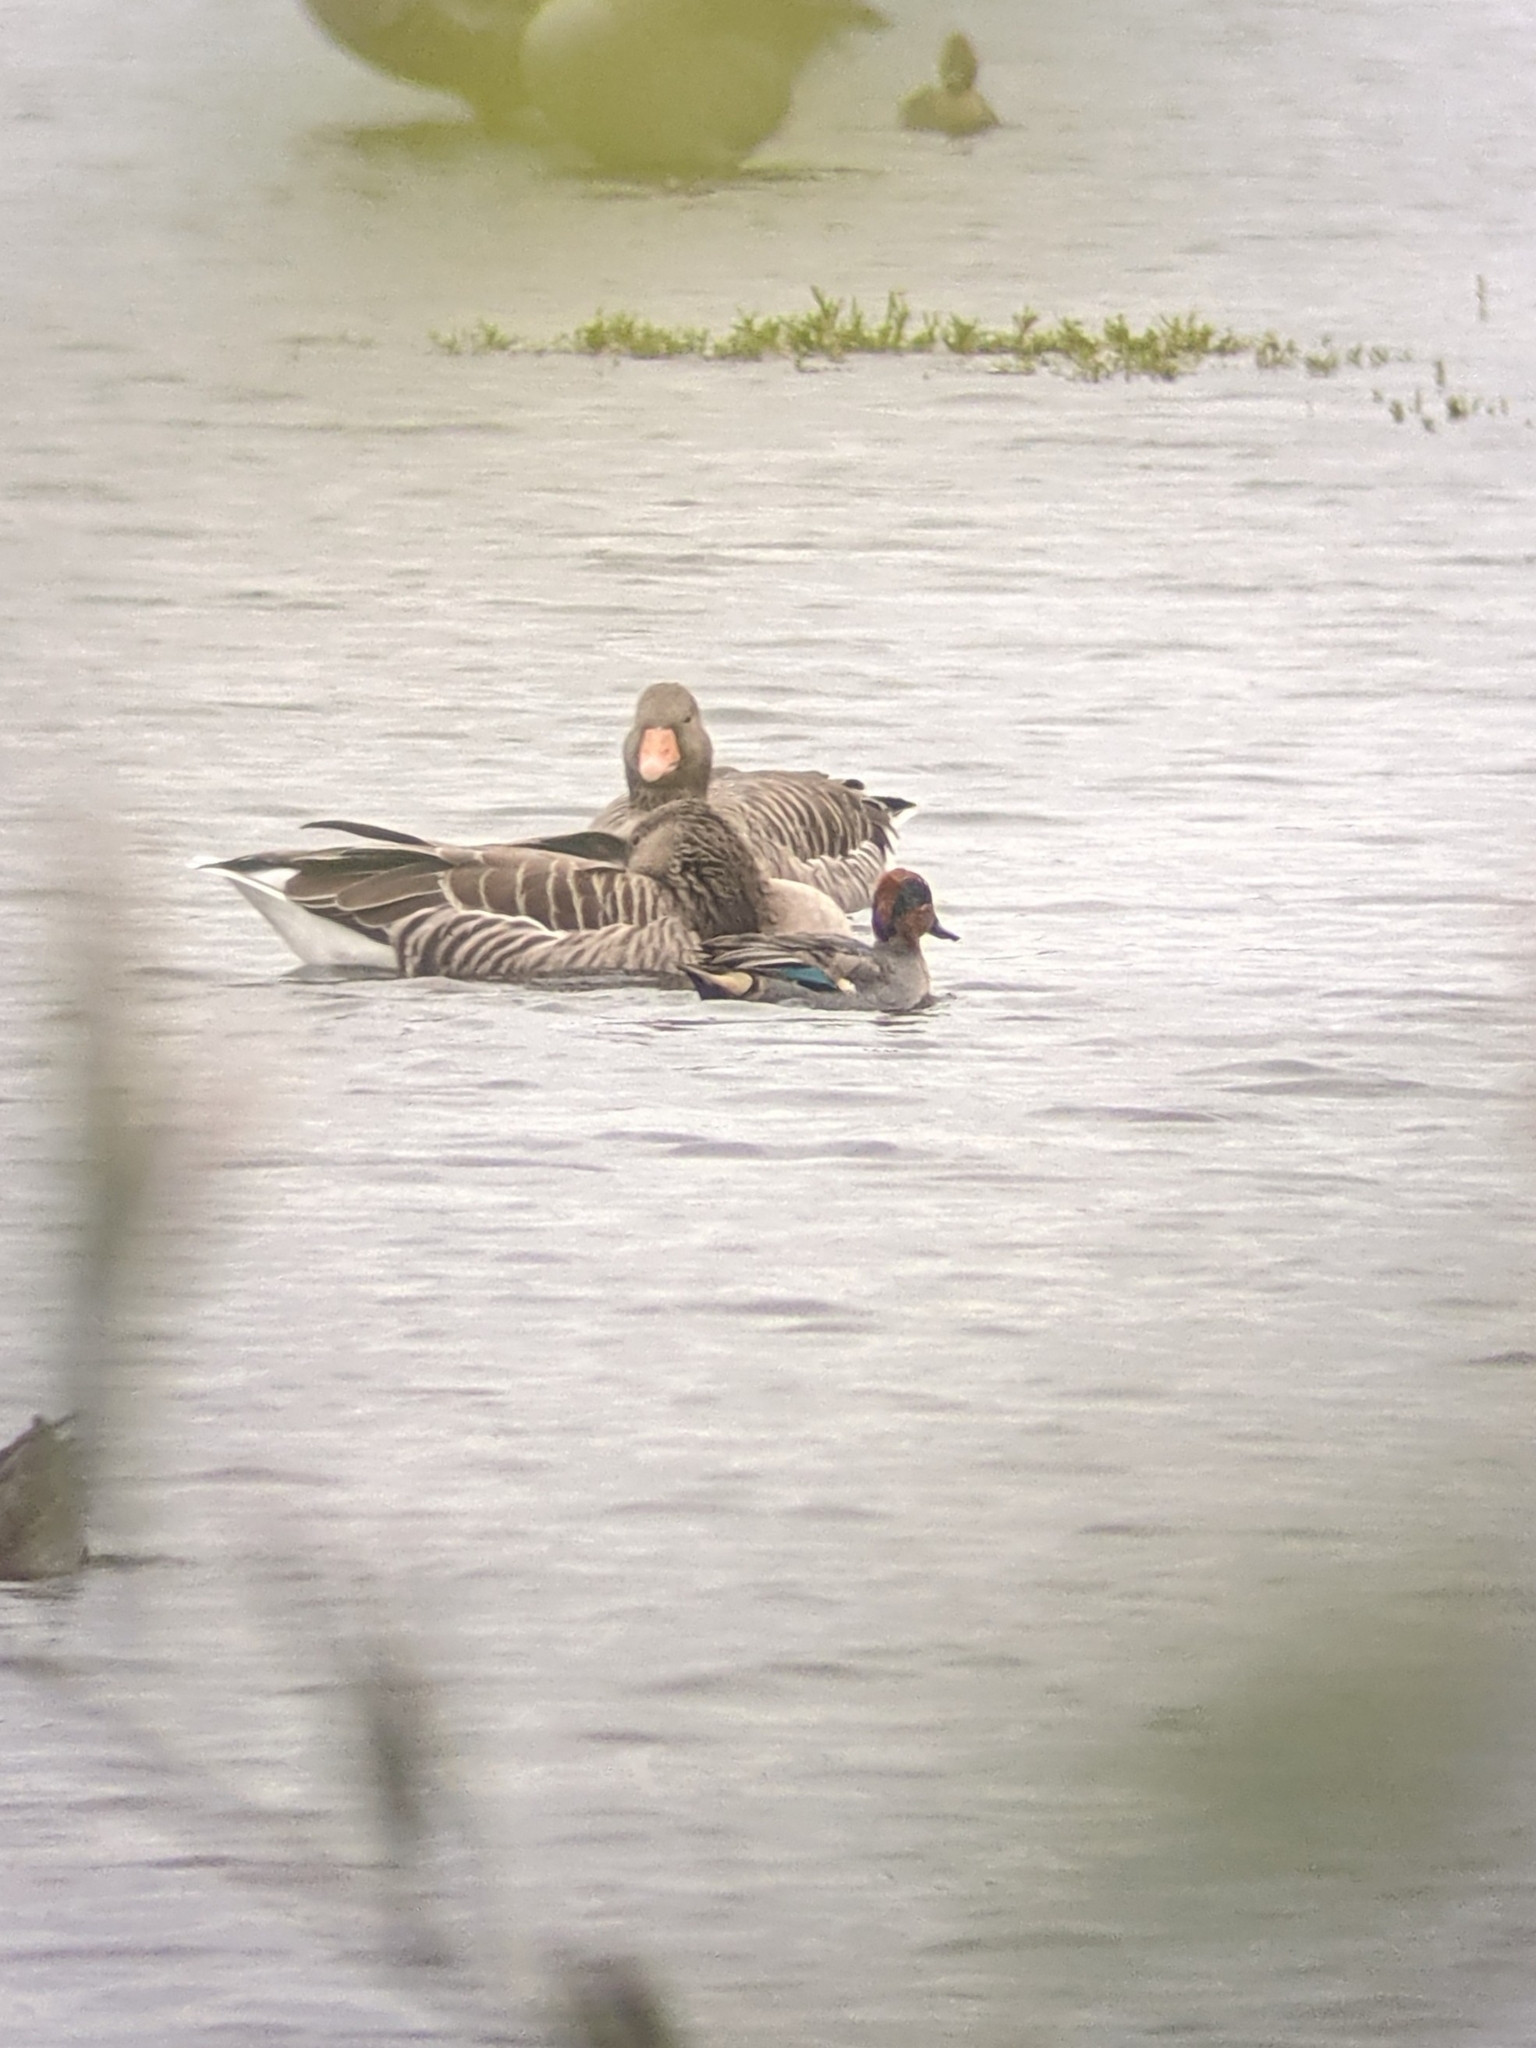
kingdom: Animalia
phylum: Chordata
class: Aves
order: Anseriformes
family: Anatidae
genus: Anas
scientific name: Anas crecca
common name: Eurasian teal
